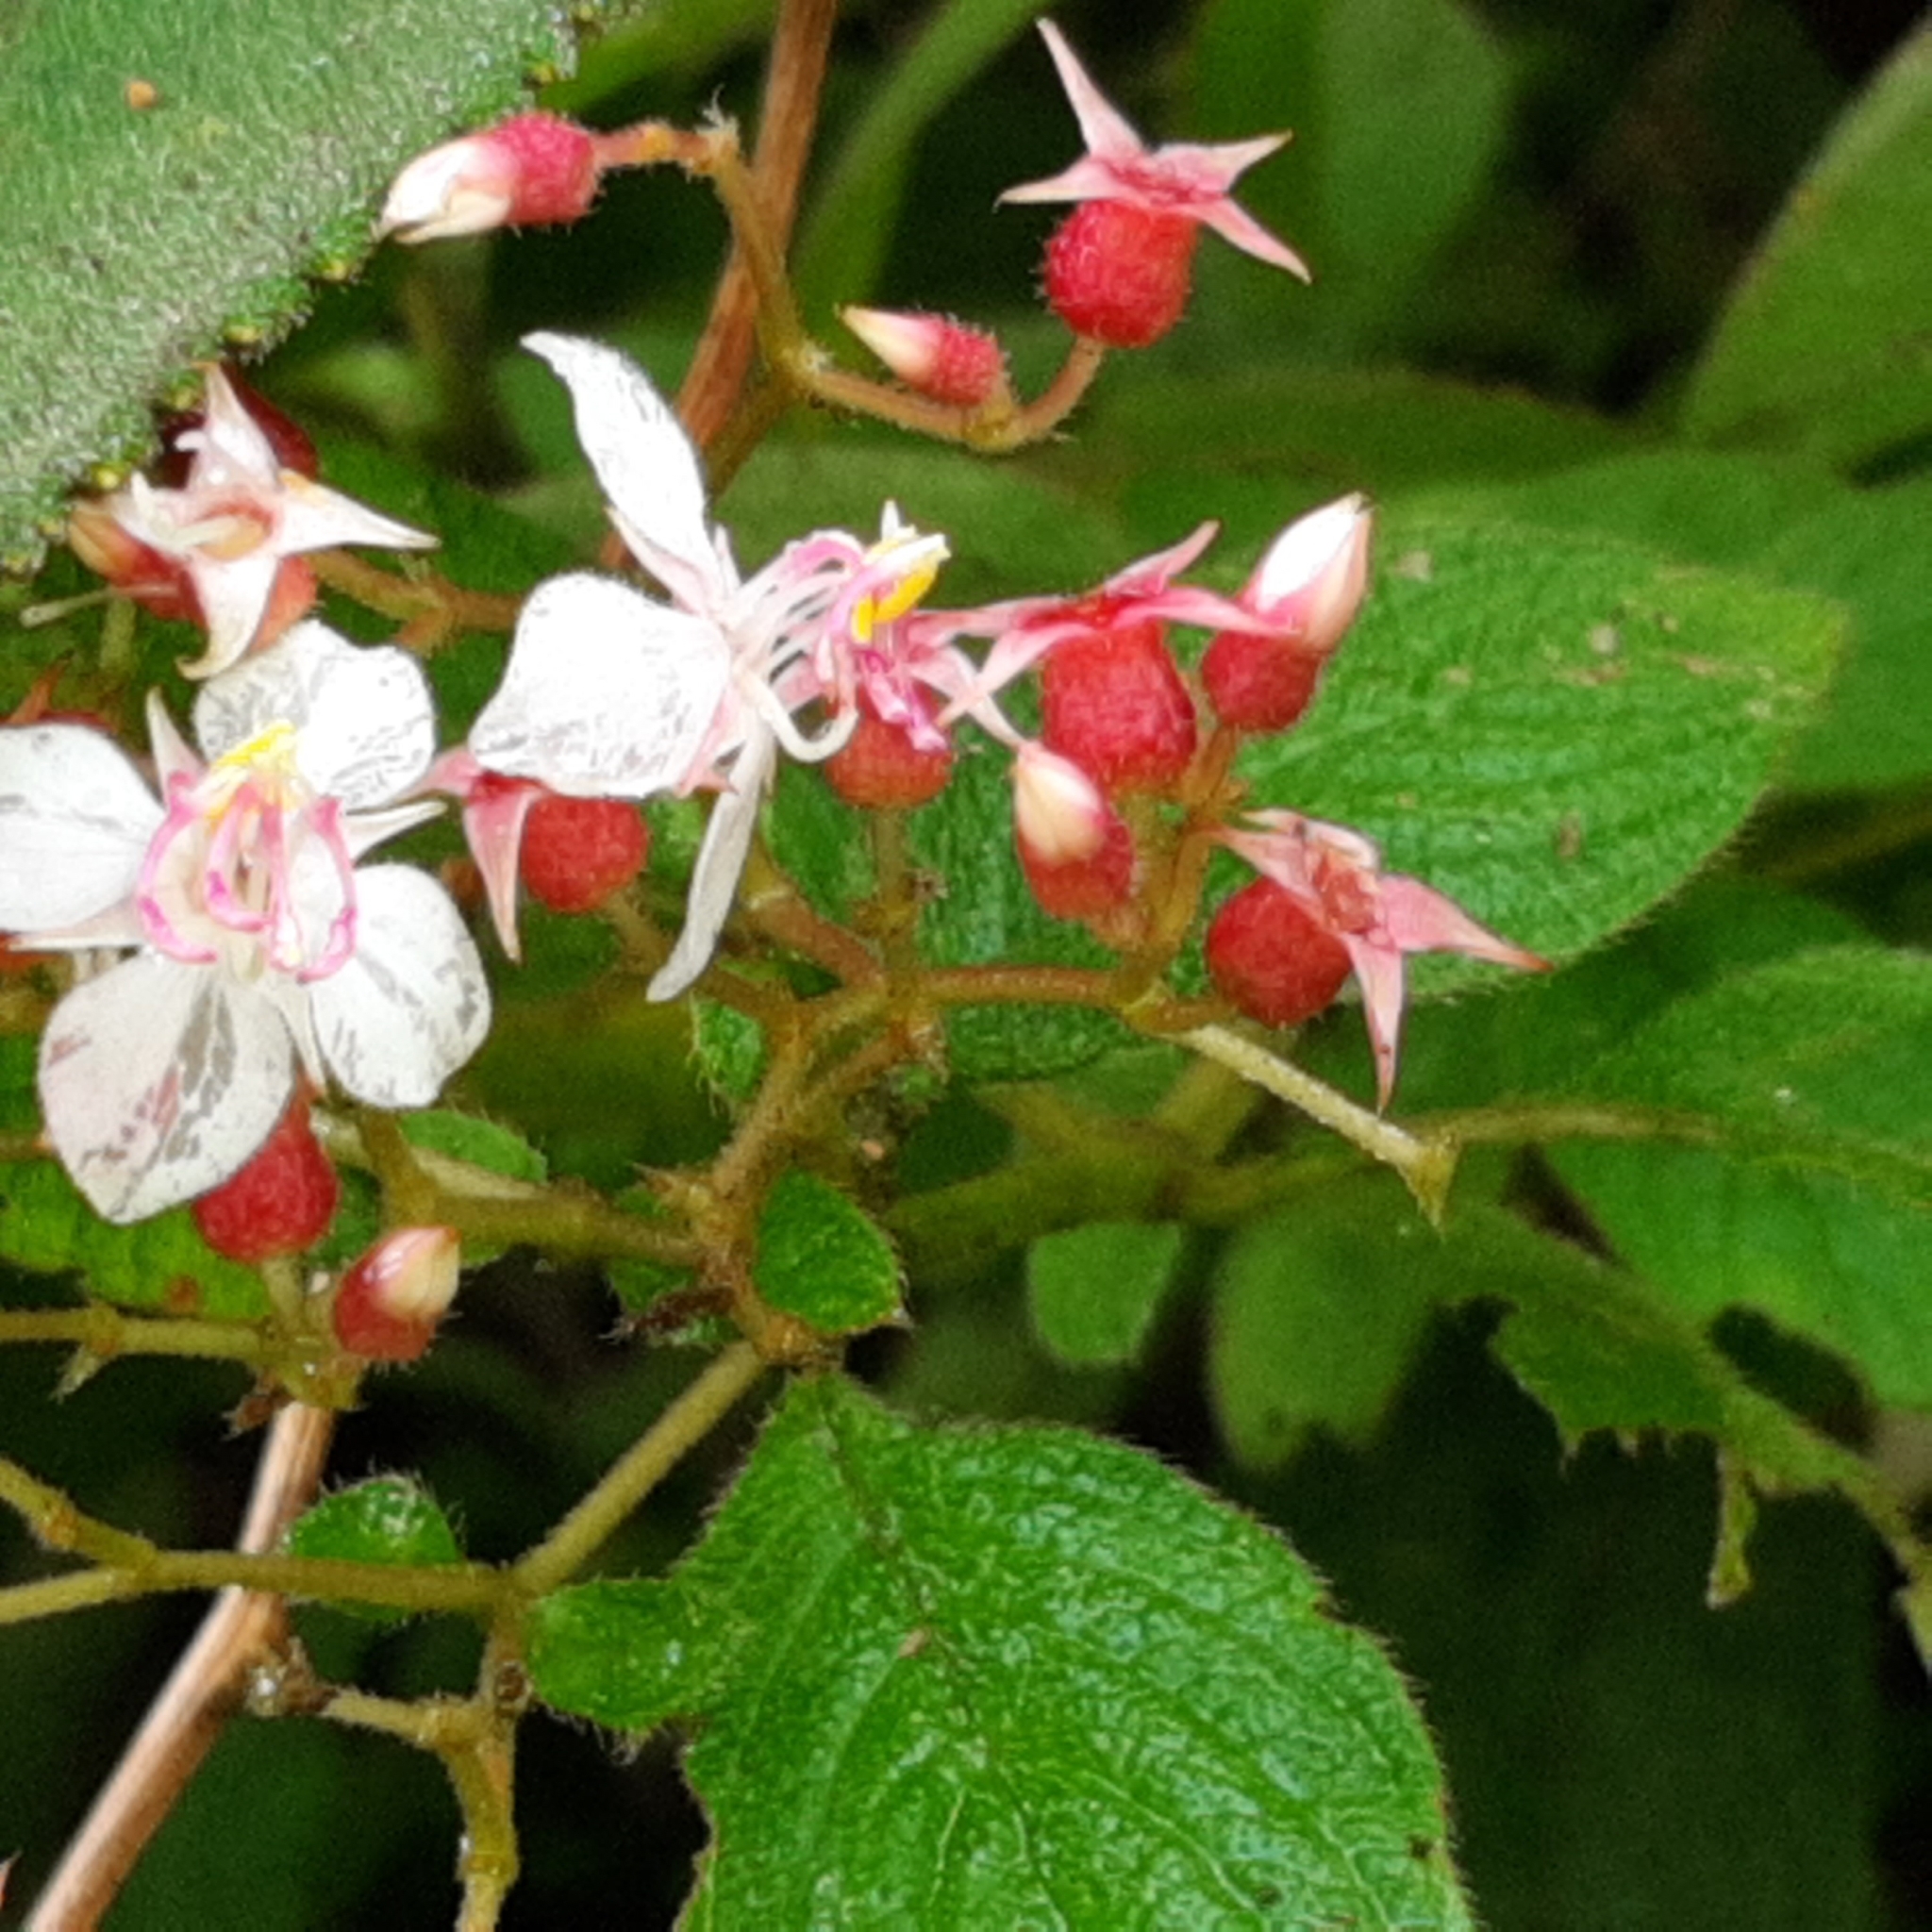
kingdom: Plantae
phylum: Tracheophyta
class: Magnoliopsida
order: Myrtales
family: Melastomataceae
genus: Heterocentron
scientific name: Heterocentron glandulosum
